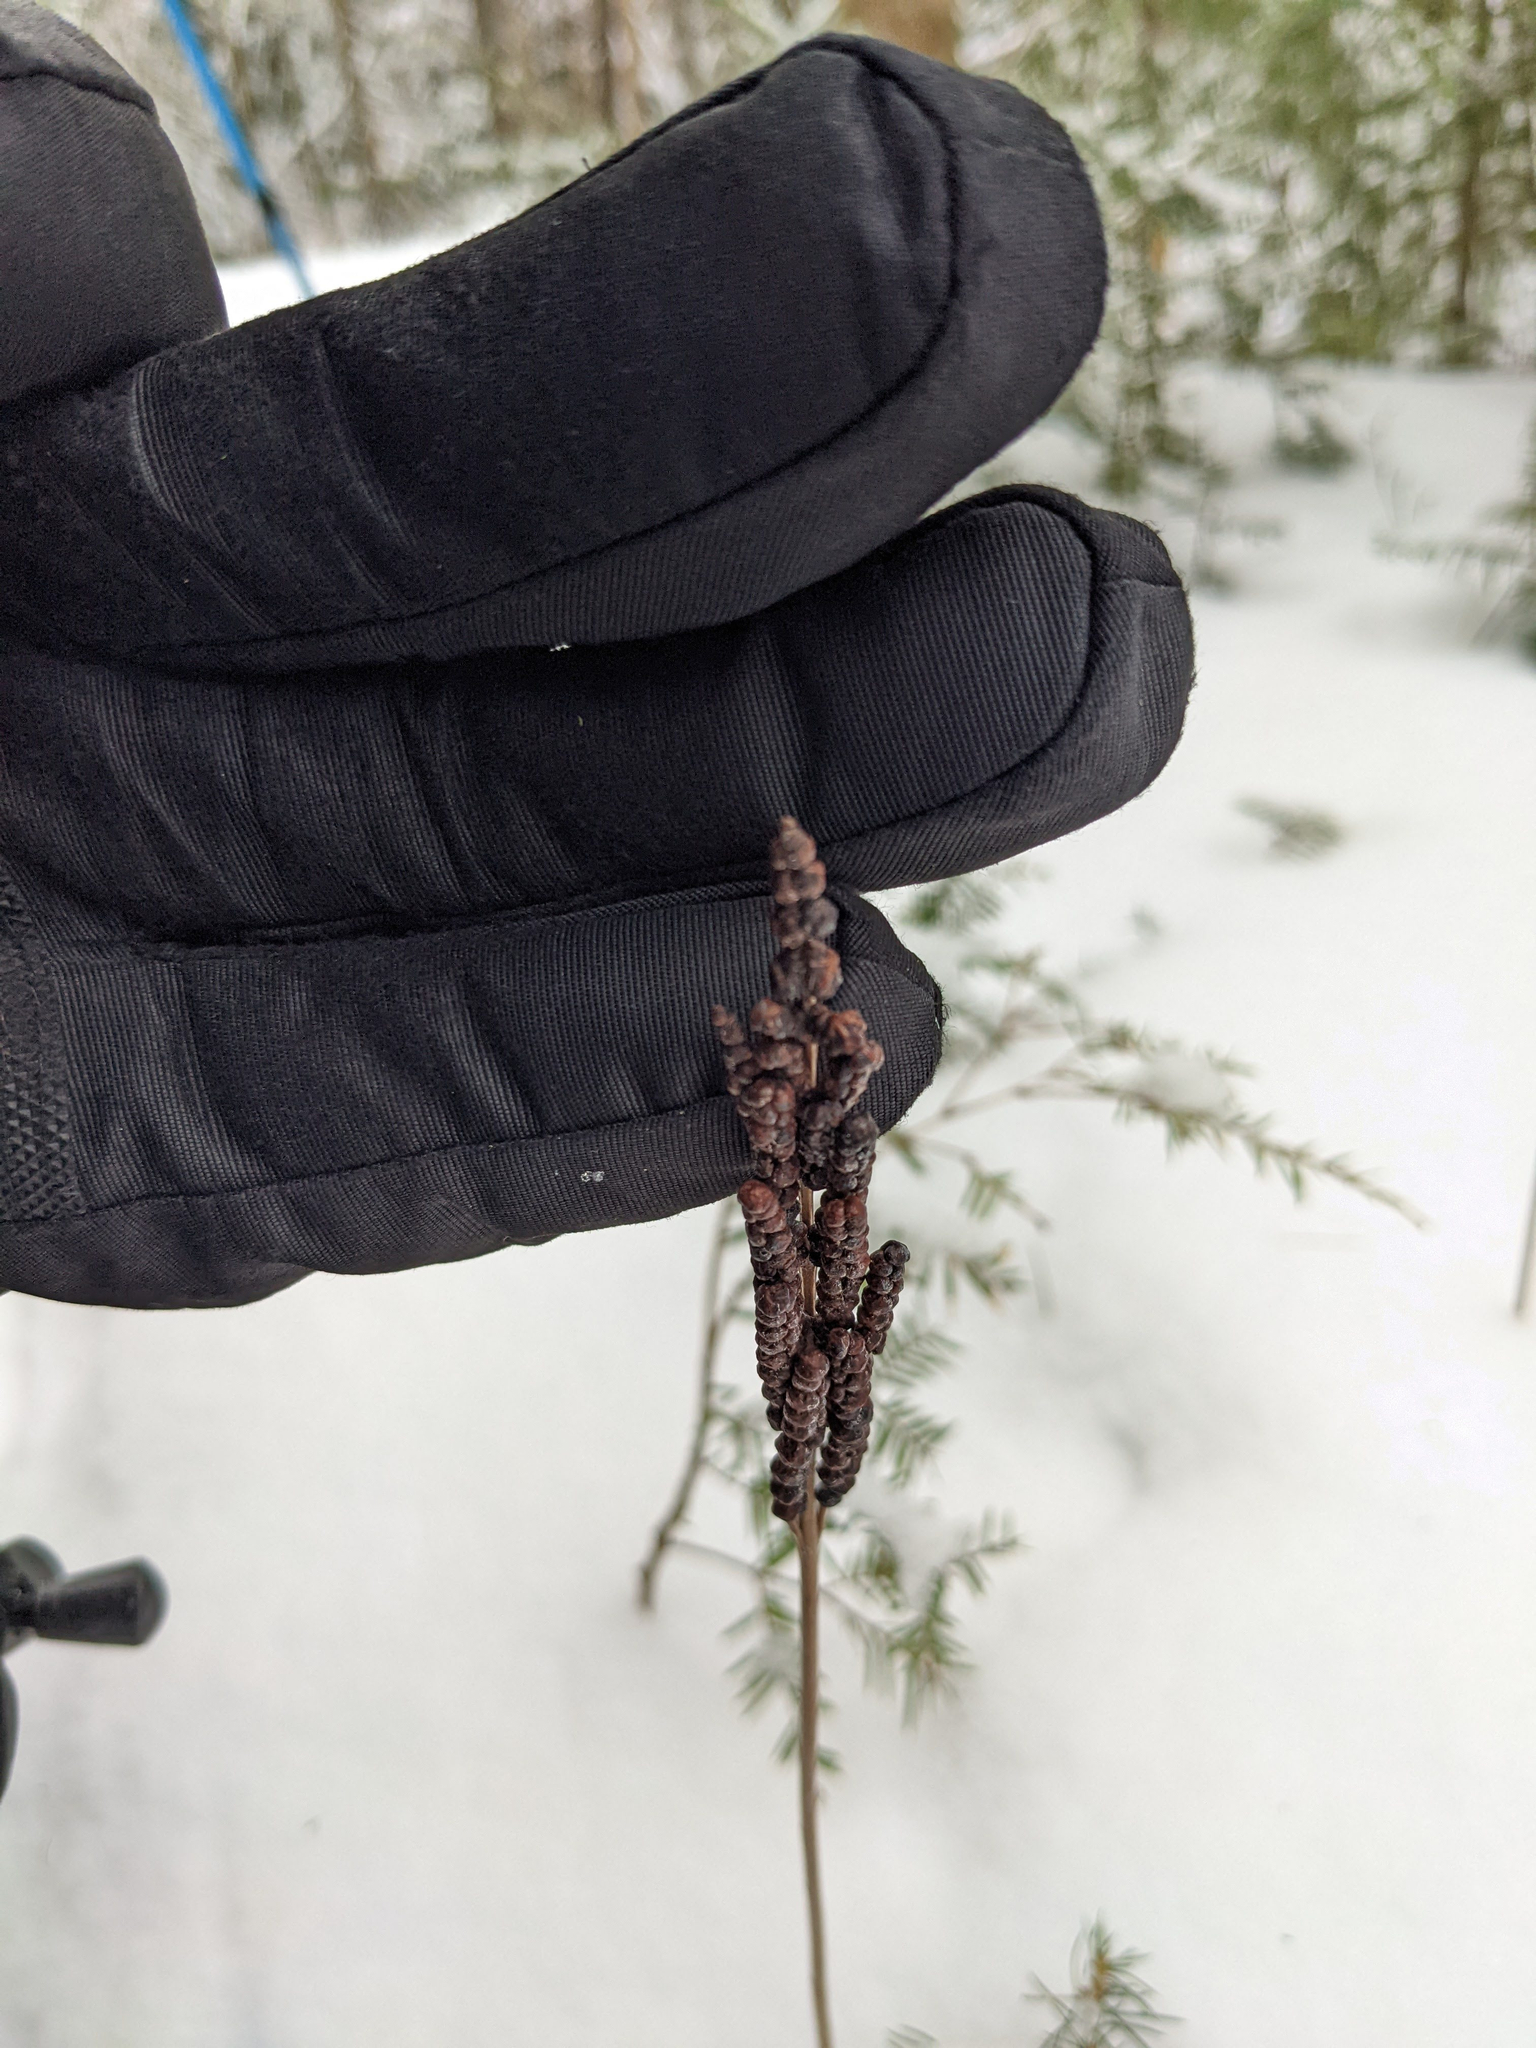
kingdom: Plantae
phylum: Tracheophyta
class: Polypodiopsida
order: Polypodiales
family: Onocleaceae
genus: Onoclea
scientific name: Onoclea sensibilis
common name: Sensitive fern
